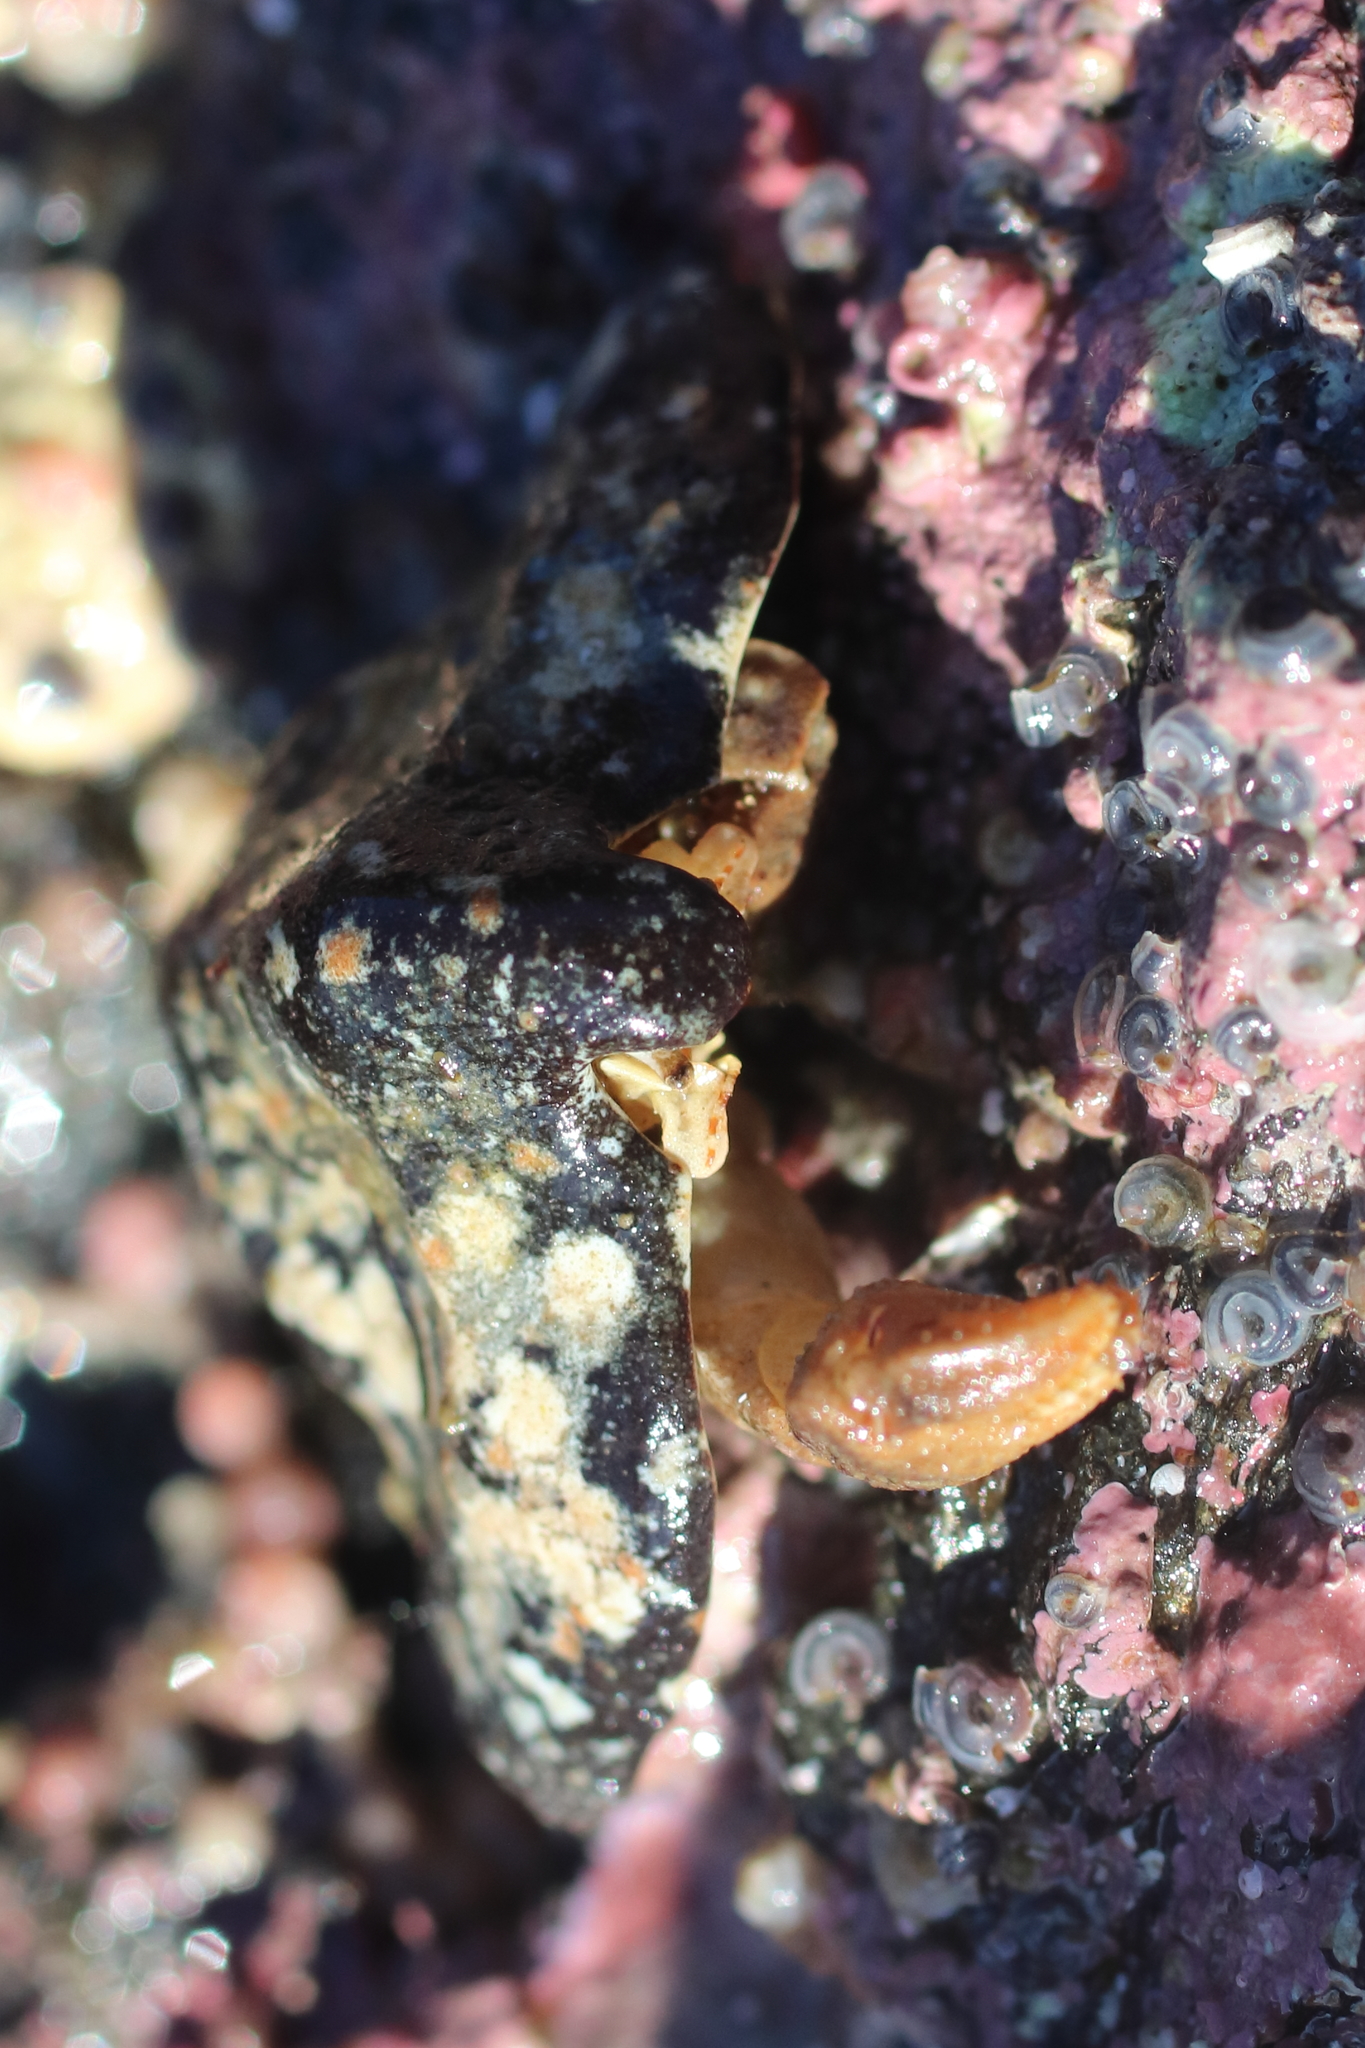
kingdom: Animalia
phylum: Arthropoda
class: Malacostraca
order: Decapoda
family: Lithodidae
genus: Cryptolithodes
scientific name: Cryptolithodes typicus
